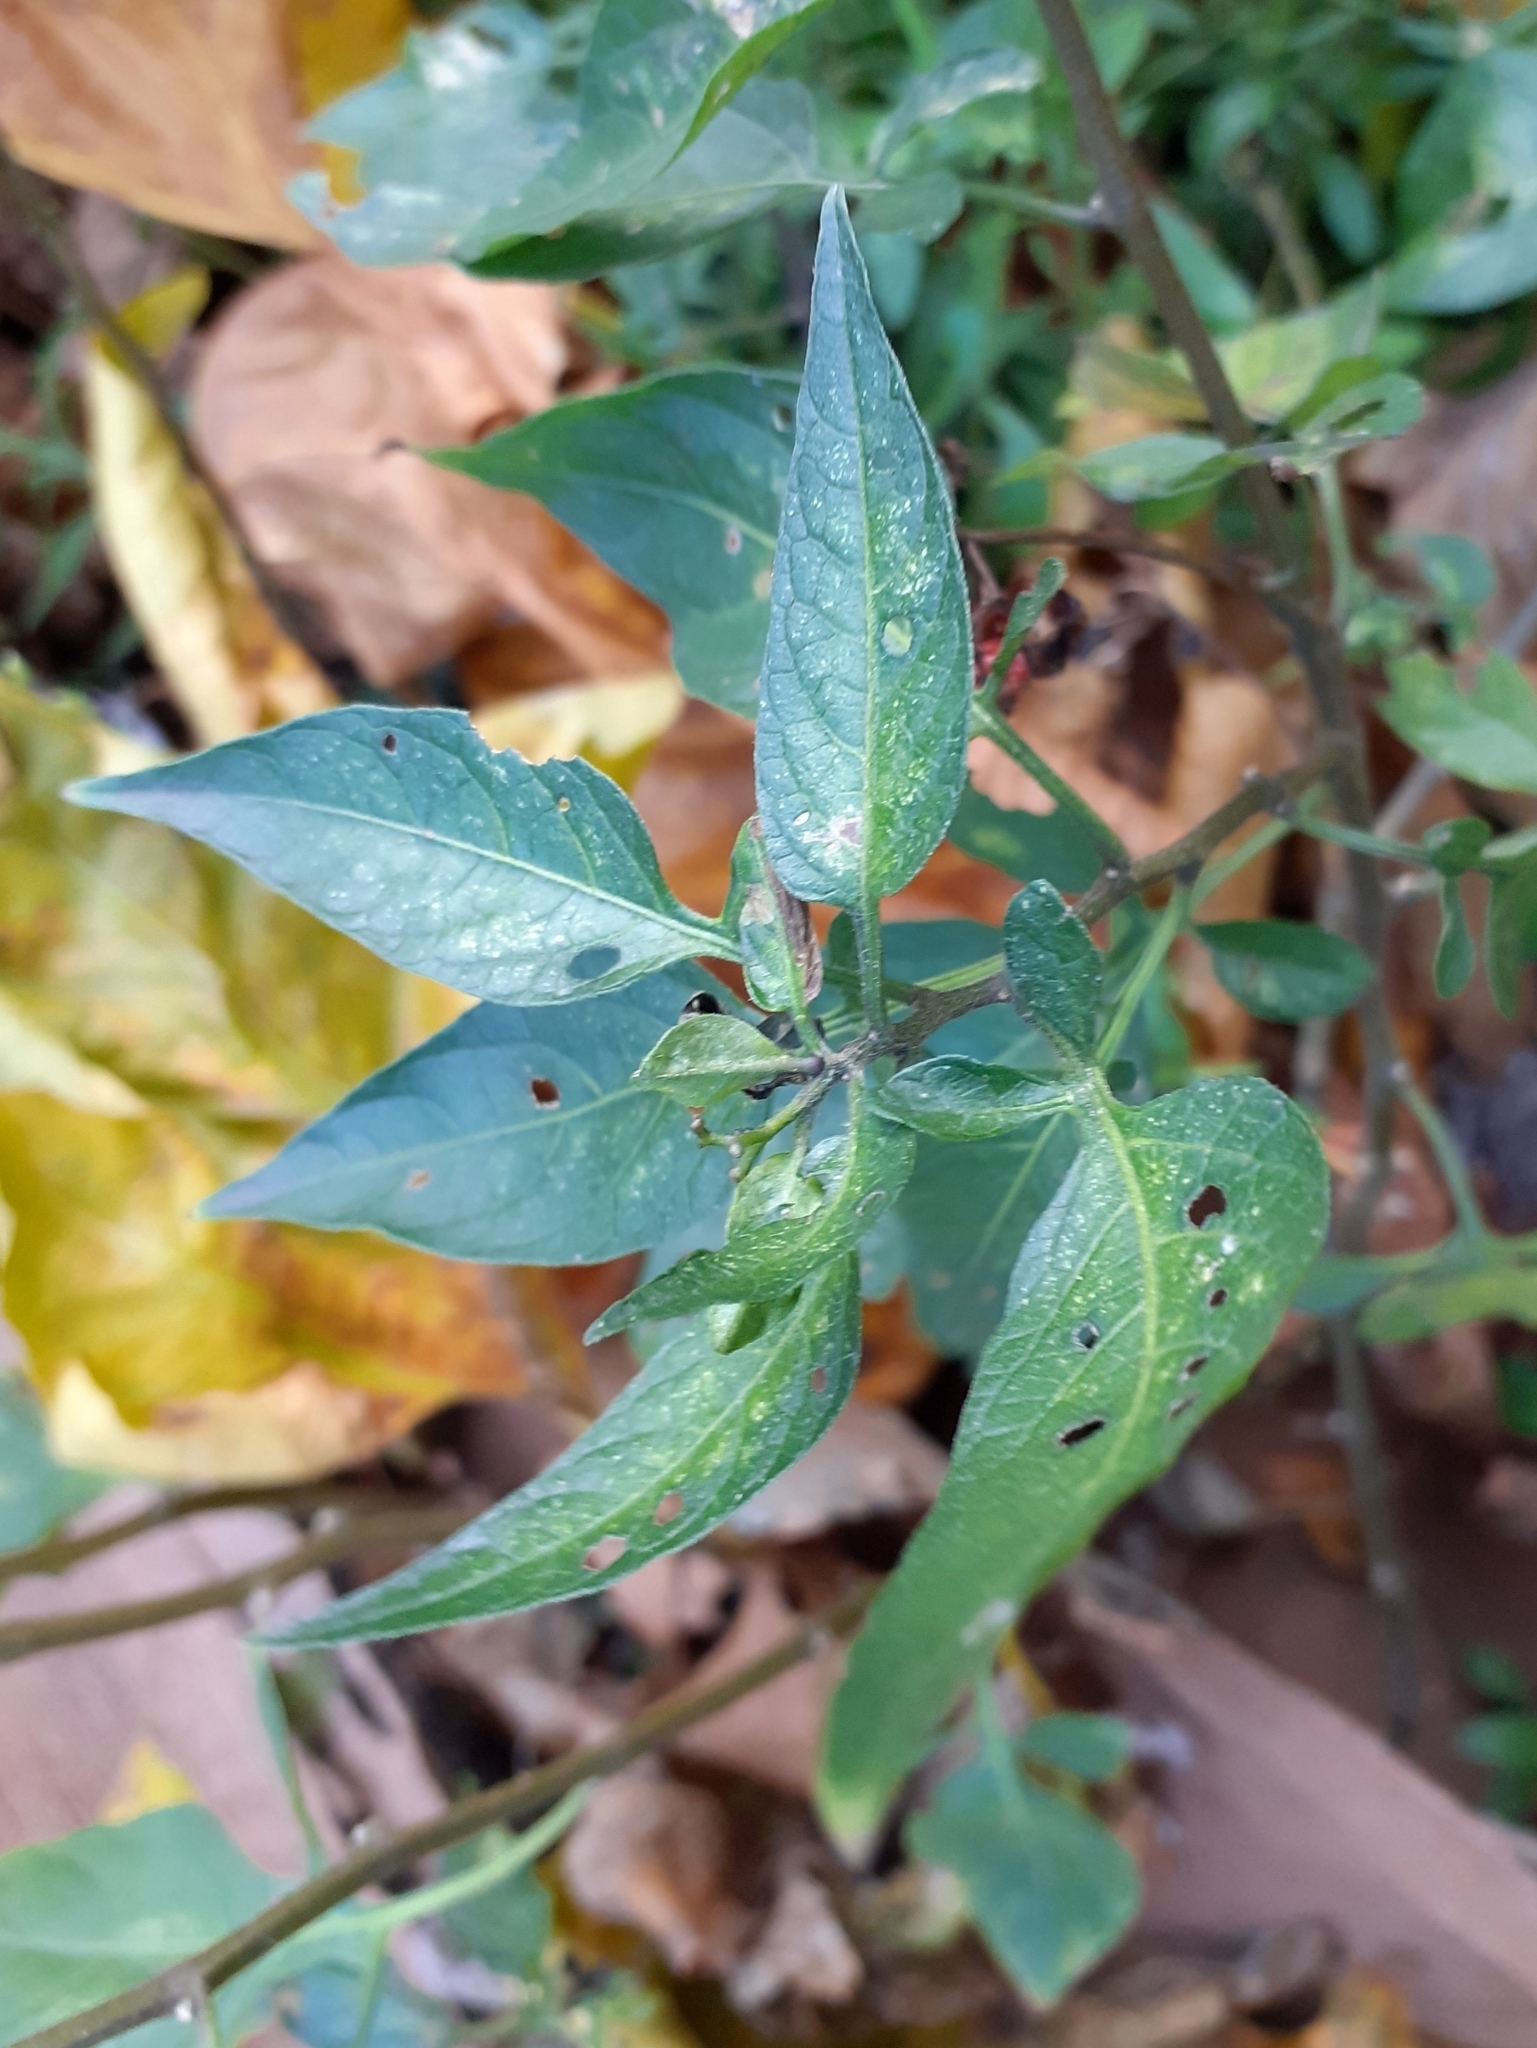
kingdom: Plantae
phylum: Tracheophyta
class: Magnoliopsida
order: Solanales
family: Solanaceae
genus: Solanum
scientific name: Solanum dulcamara
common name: Climbing nightshade
